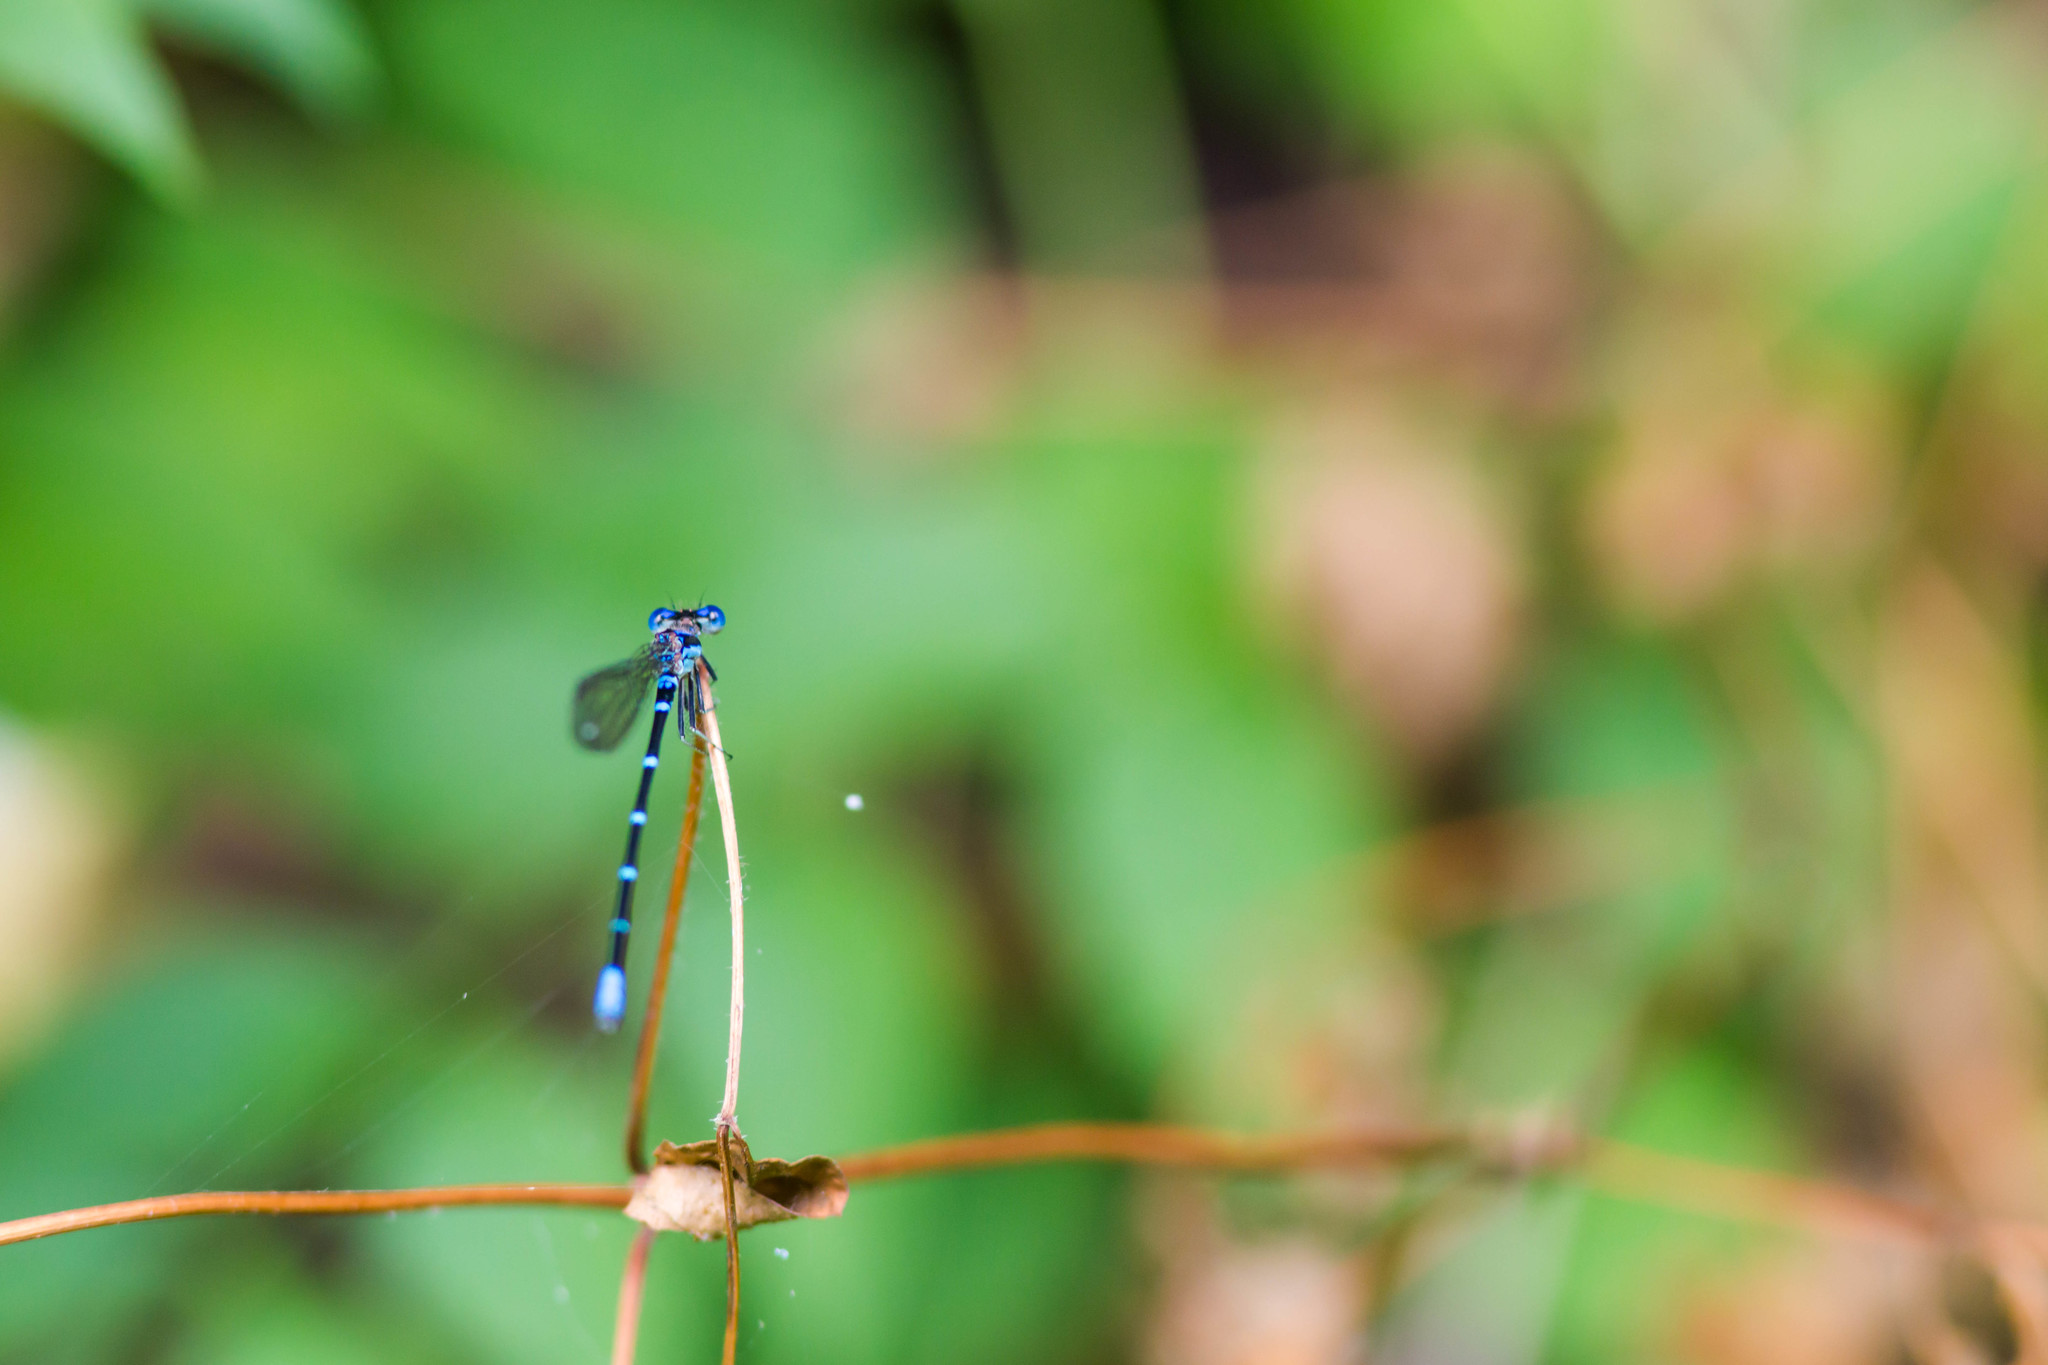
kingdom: Animalia
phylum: Arthropoda
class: Insecta
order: Odonata
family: Coenagrionidae
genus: Argia
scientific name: Argia sedula
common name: Blue-ringed dancer
